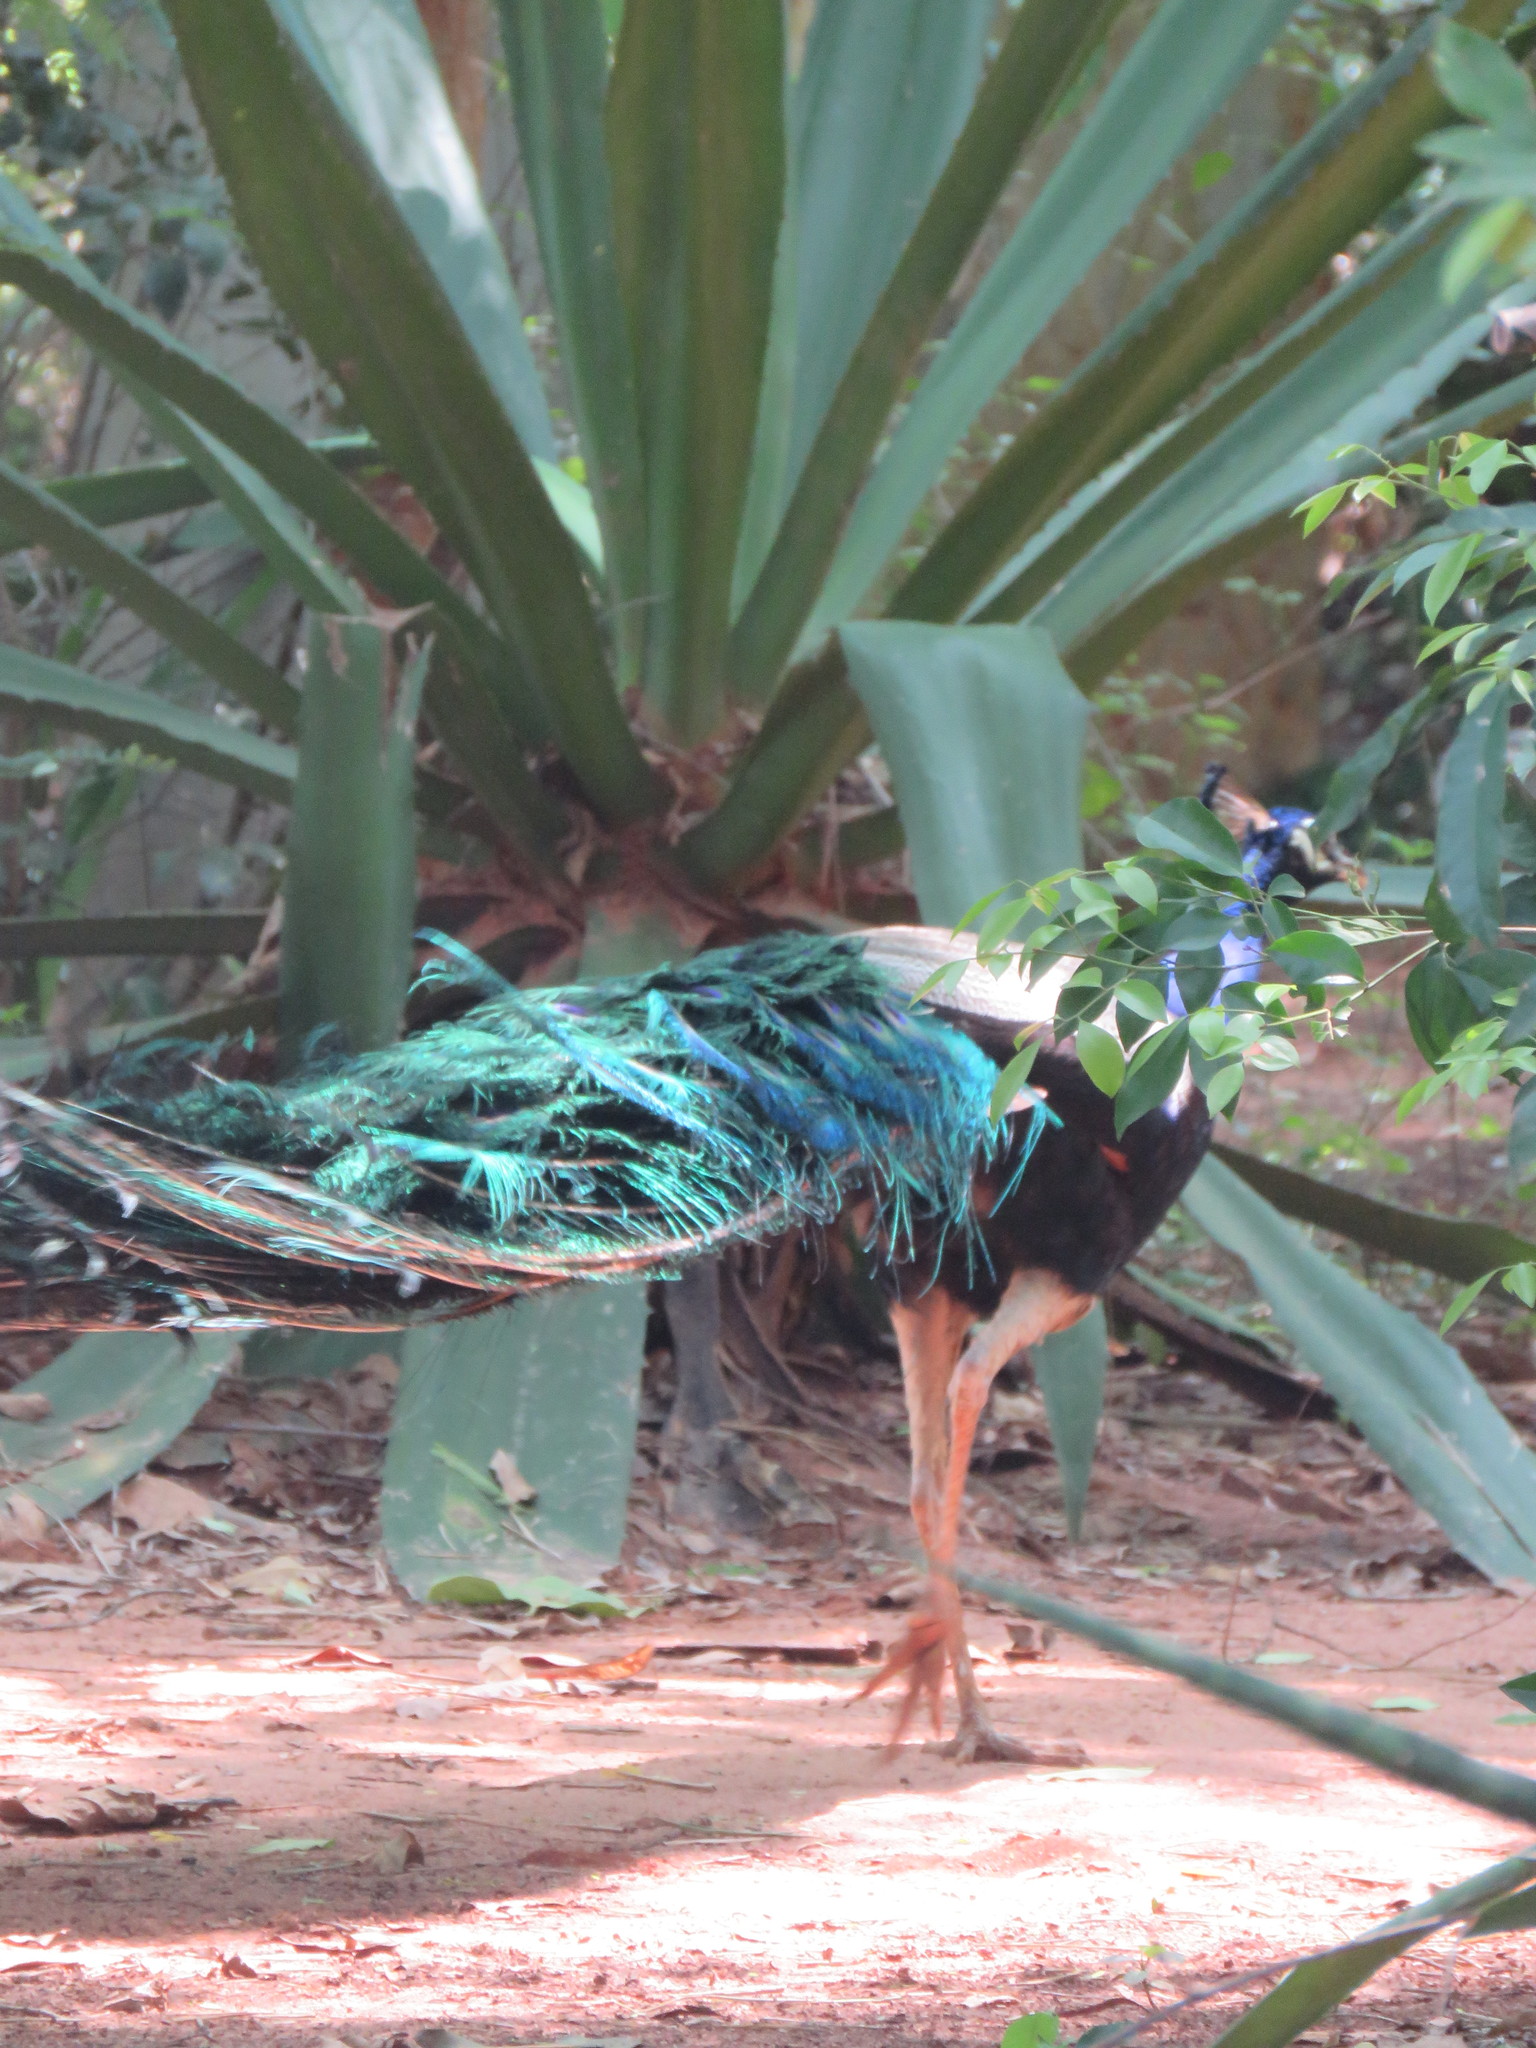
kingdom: Animalia
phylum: Chordata
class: Aves
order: Galliformes
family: Phasianidae
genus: Pavo
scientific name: Pavo cristatus
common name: Indian peafowl
